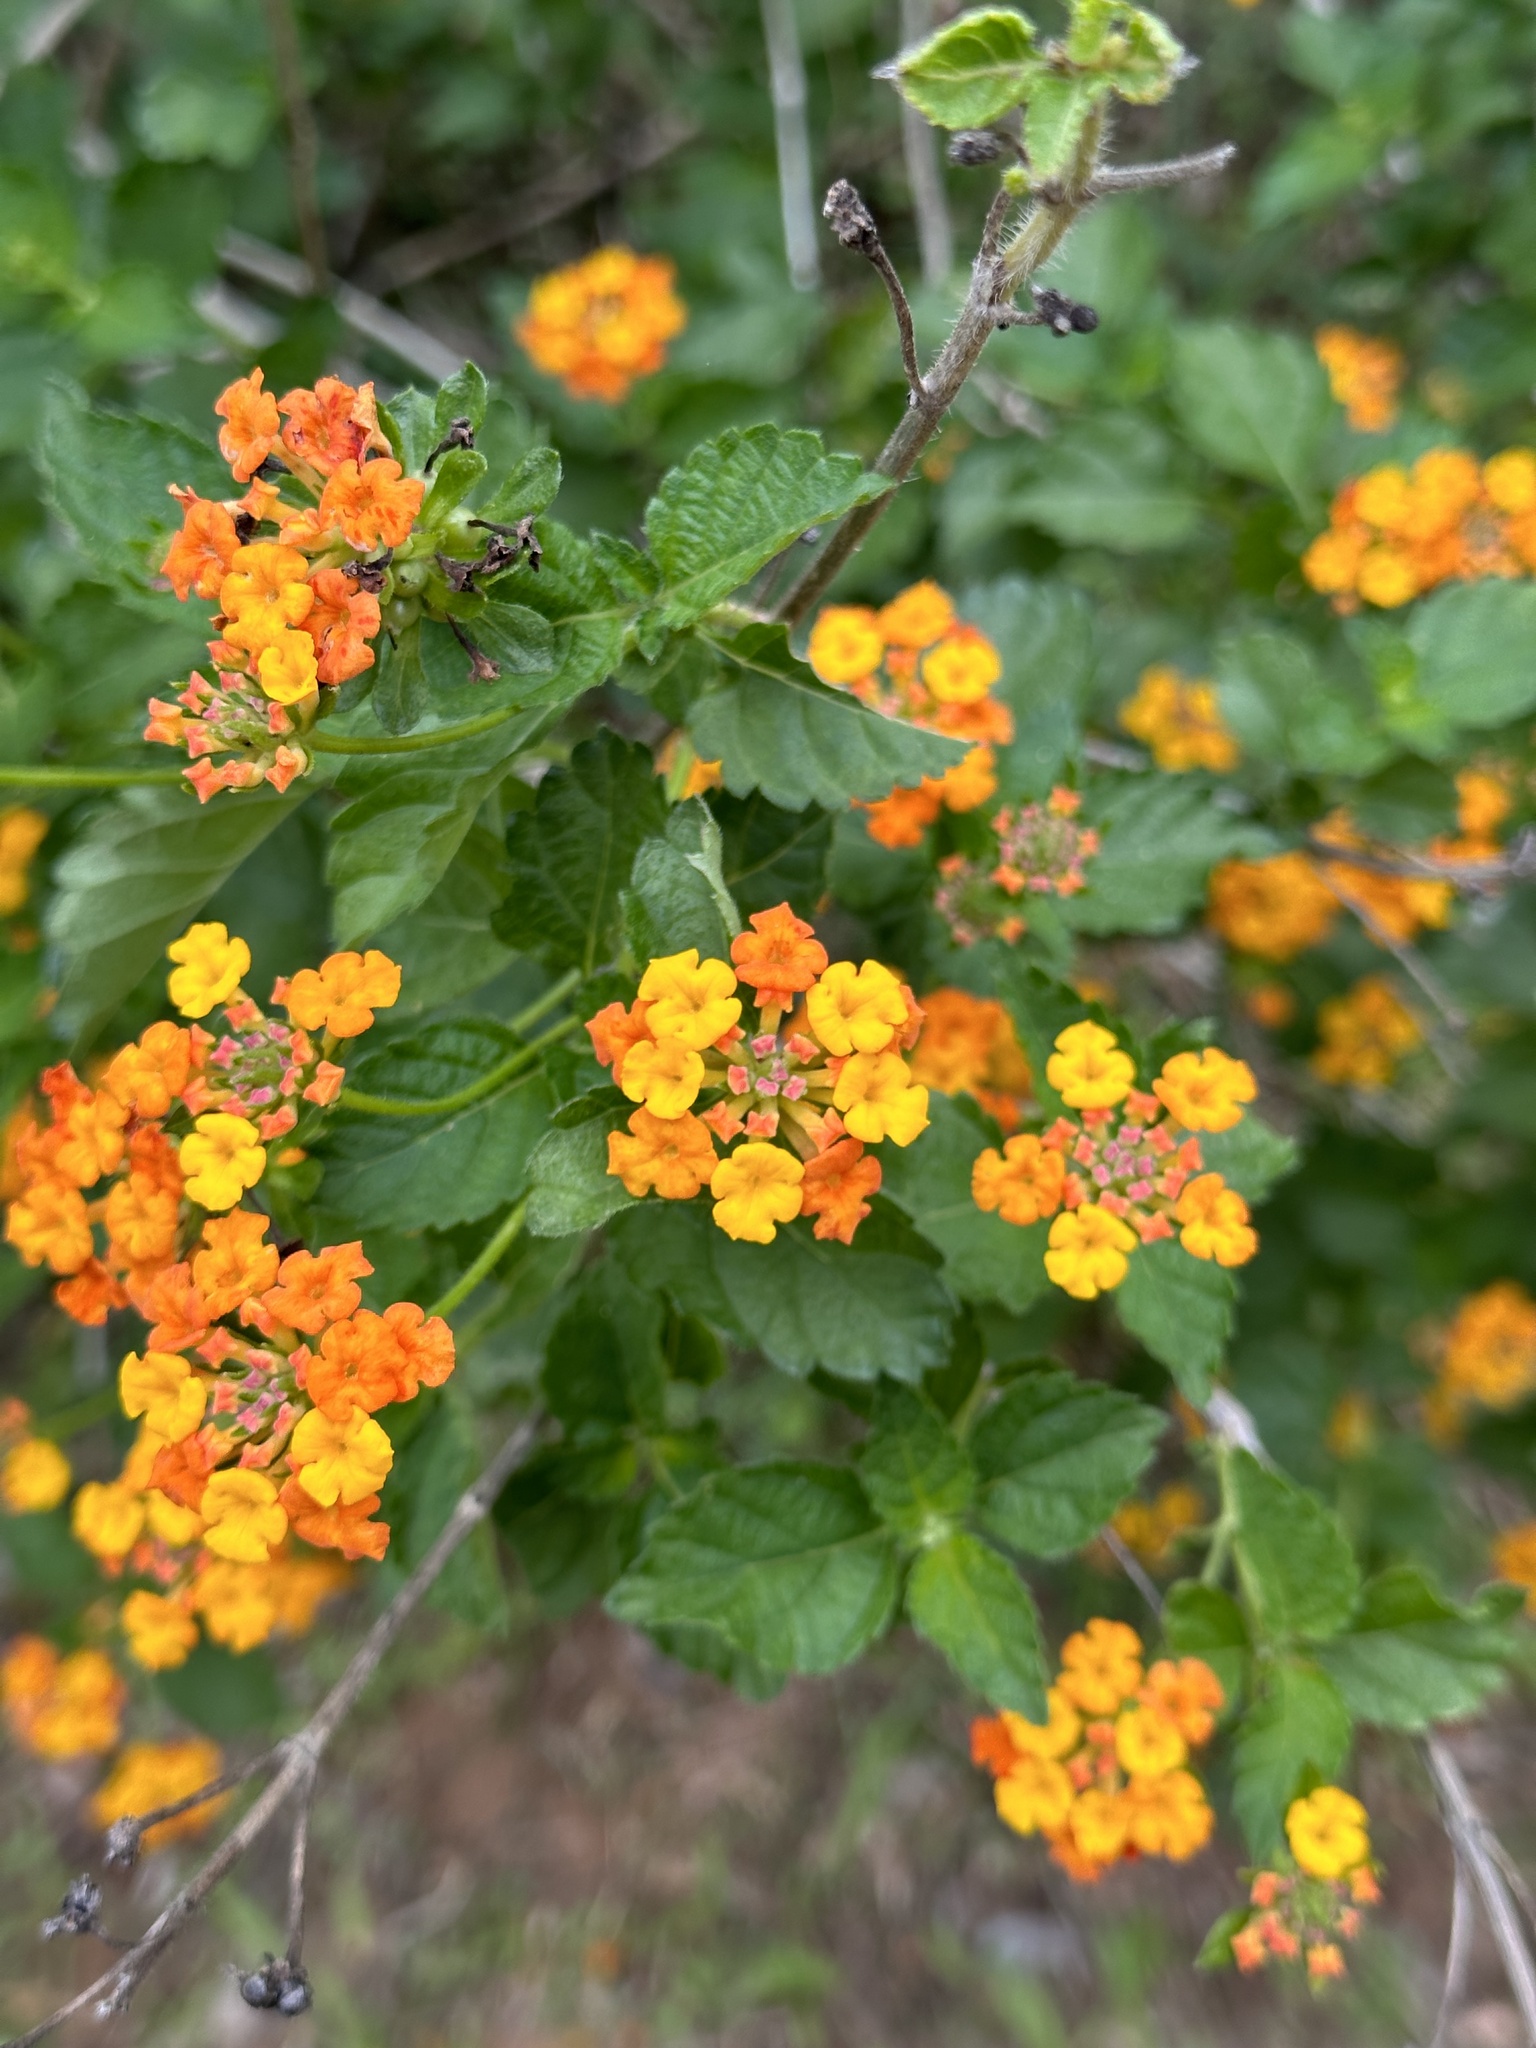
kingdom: Plantae
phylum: Tracheophyta
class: Magnoliopsida
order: Lamiales
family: Verbenaceae
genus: Lantana
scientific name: Lantana urticoides
